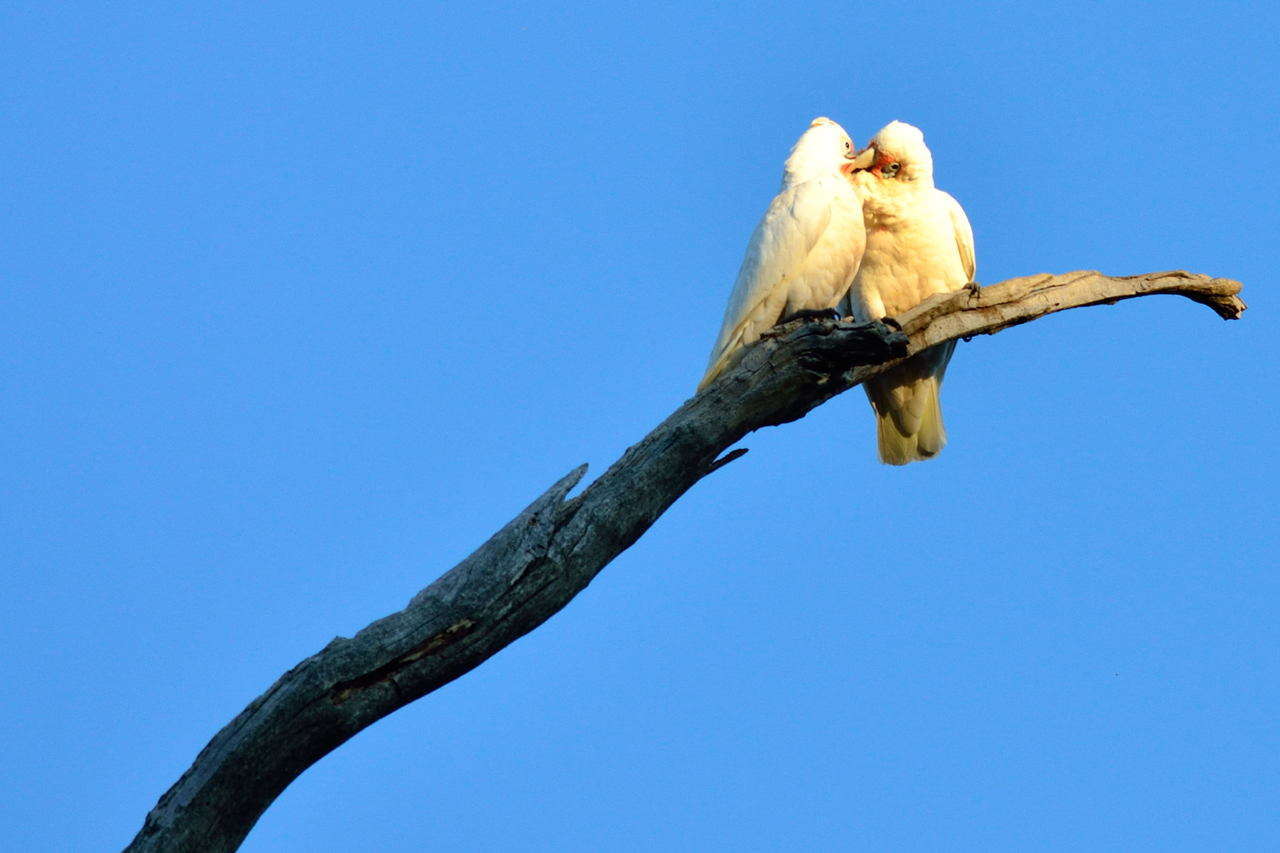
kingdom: Animalia
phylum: Chordata
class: Aves
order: Psittaciformes
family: Psittacidae
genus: Cacatua
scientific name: Cacatua tenuirostris
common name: Long-billed corella
